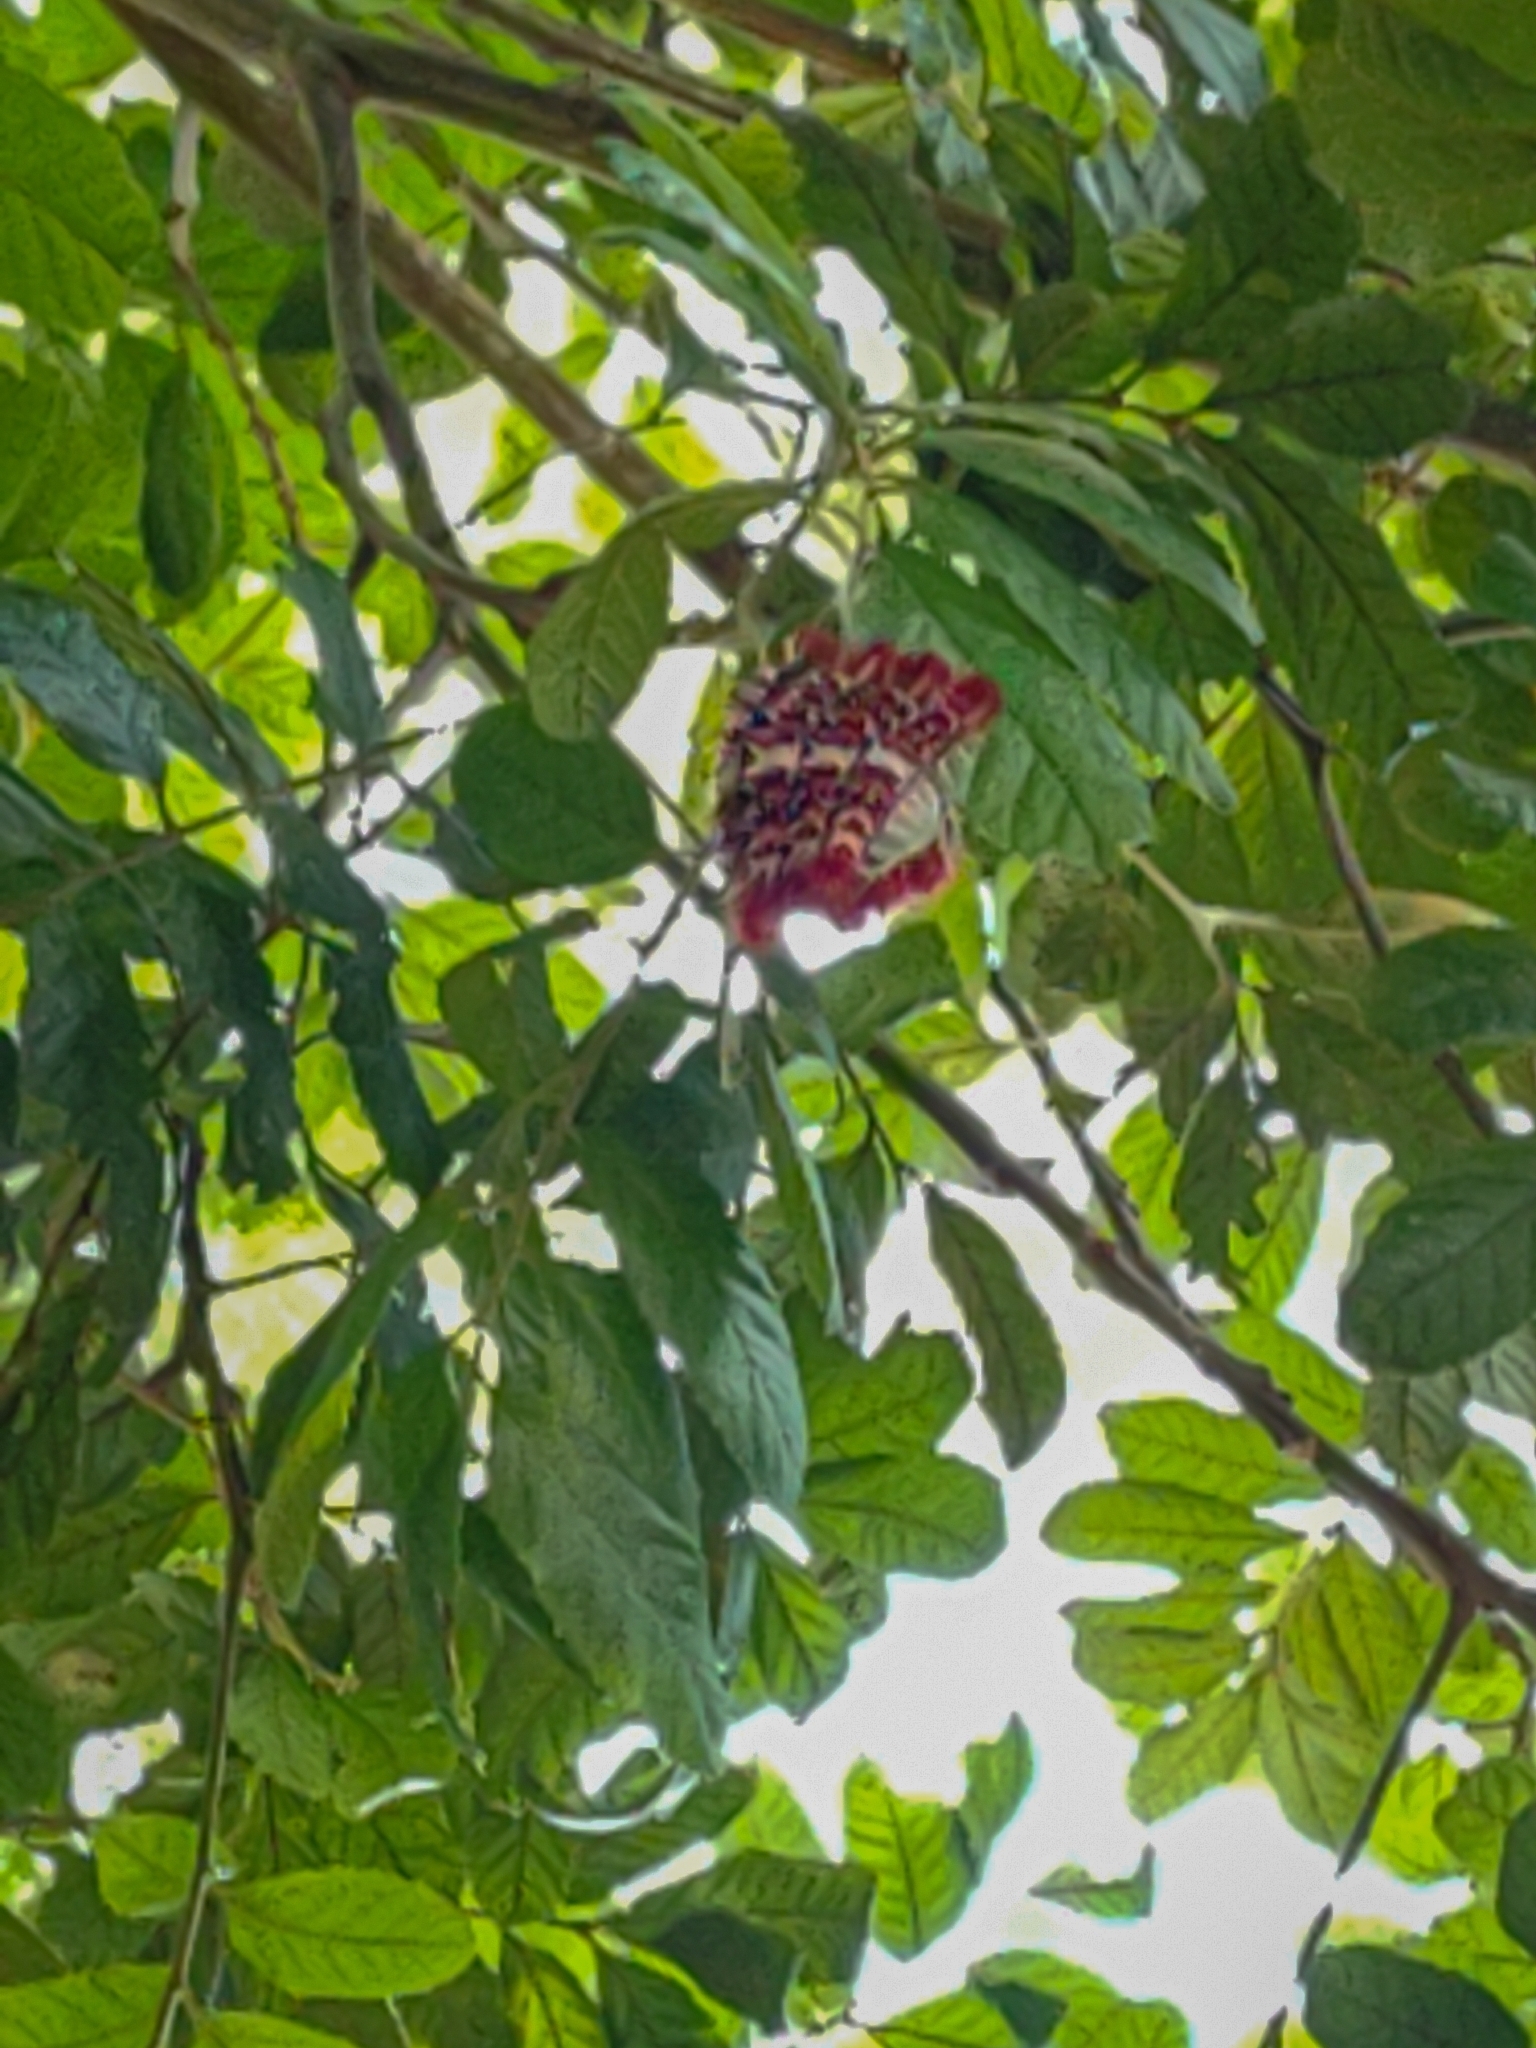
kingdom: Animalia
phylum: Arthropoda
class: Insecta
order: Lepidoptera
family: Nymphalidae
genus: Morpho
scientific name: Morpho epistrophus
